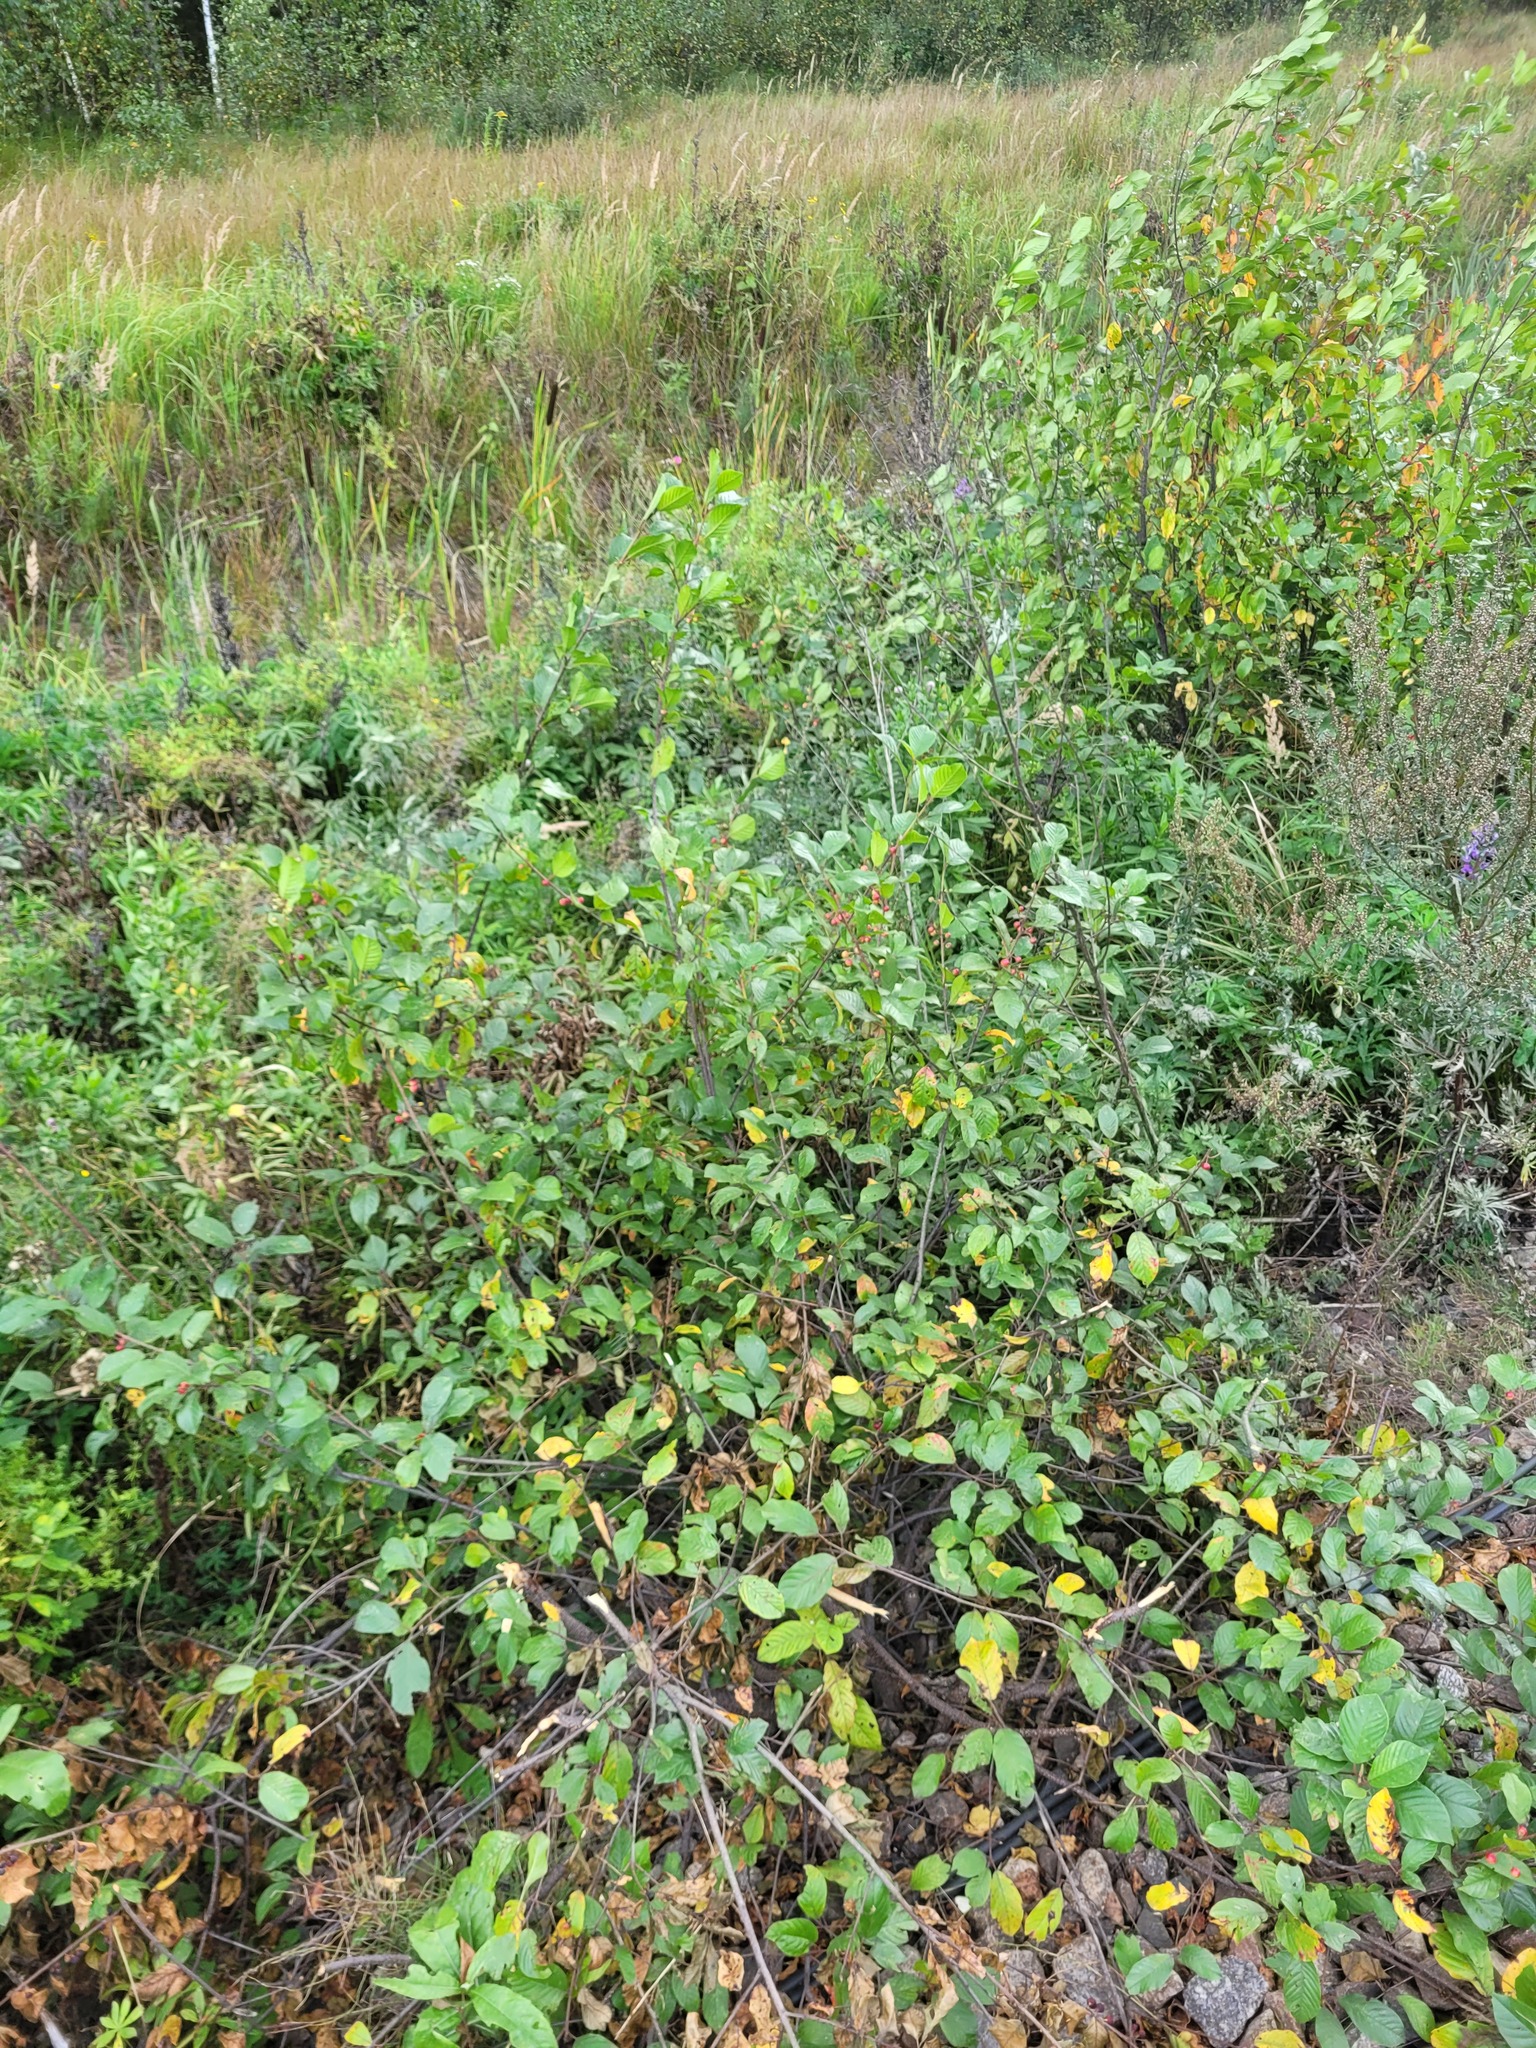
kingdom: Plantae
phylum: Tracheophyta
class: Magnoliopsida
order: Rosales
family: Rhamnaceae
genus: Frangula
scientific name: Frangula alnus
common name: Alder buckthorn
